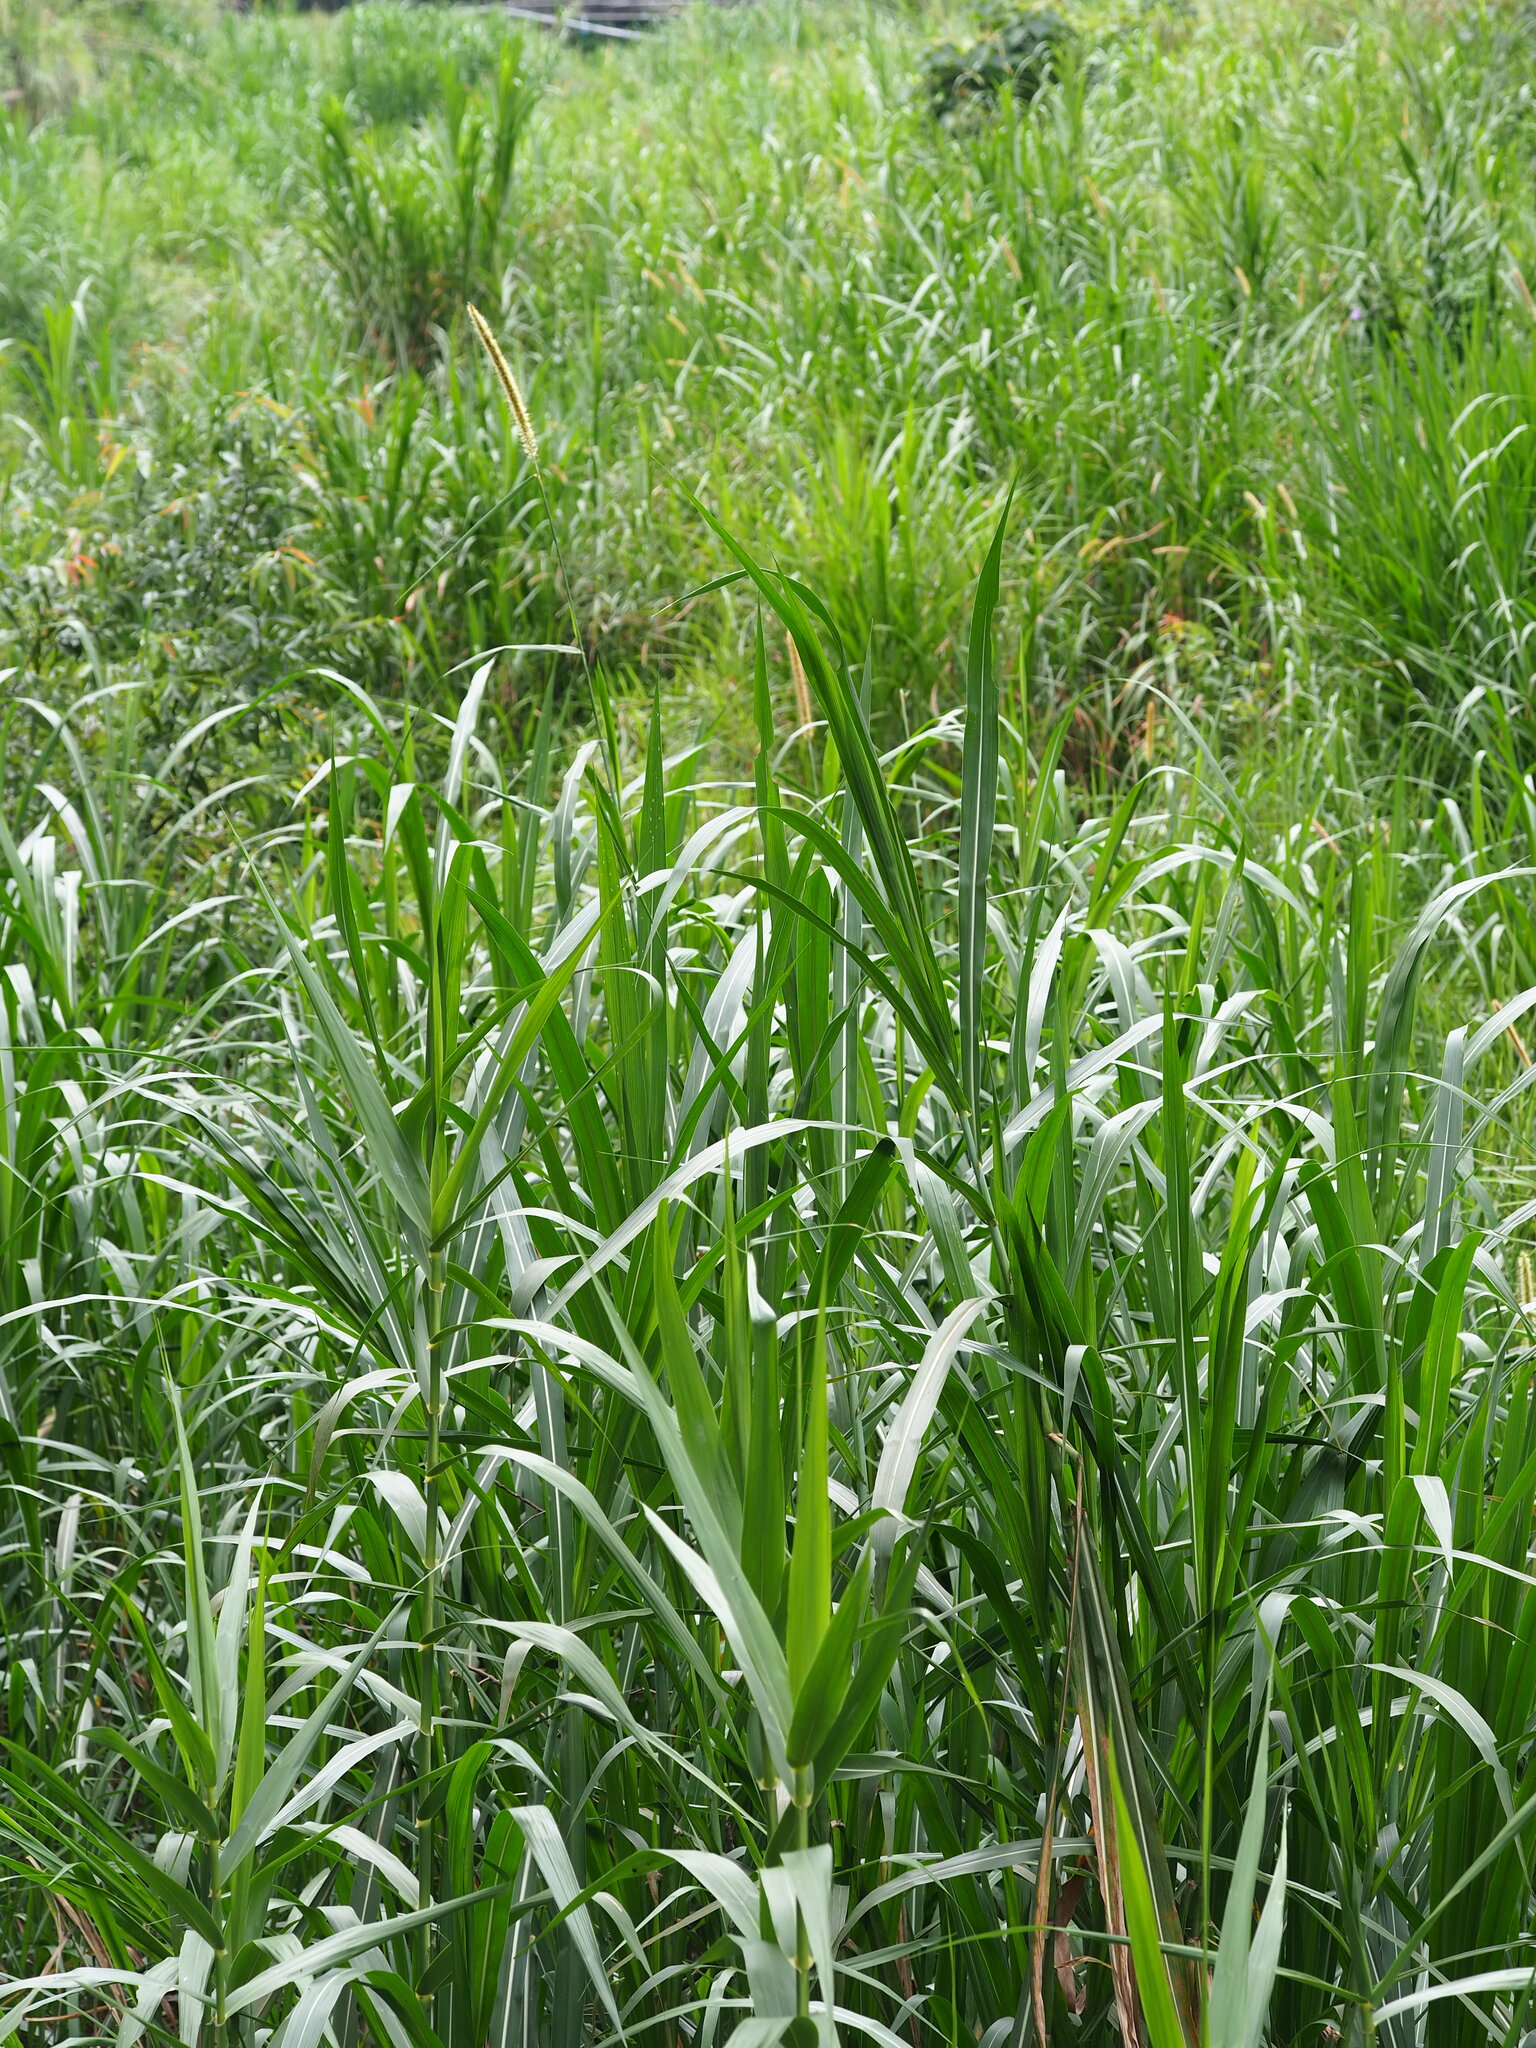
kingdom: Plantae
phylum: Tracheophyta
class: Liliopsida
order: Poales
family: Poaceae
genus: Cenchrus
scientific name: Cenchrus purpureus
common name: Elephant grass
